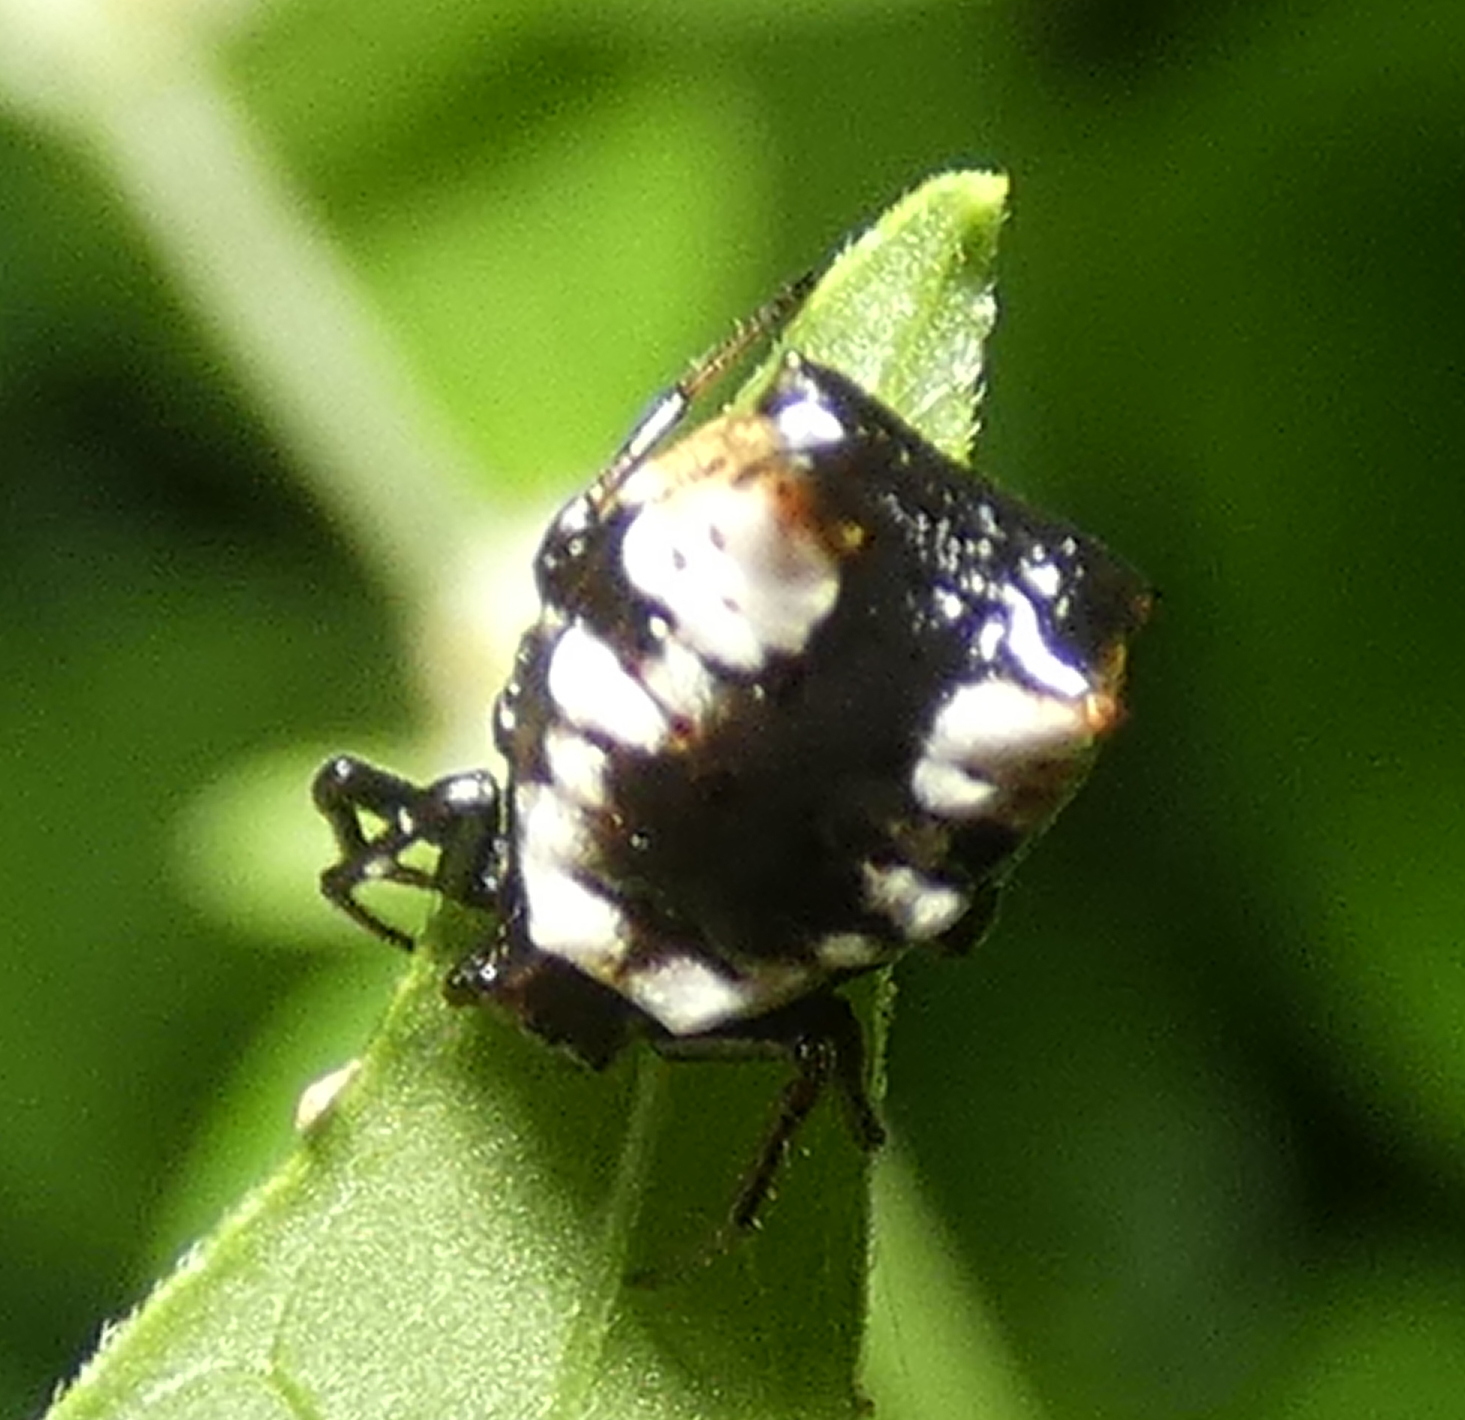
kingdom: Animalia
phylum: Arthropoda
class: Arachnida
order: Araneae
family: Araneidae
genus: Micrathena
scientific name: Micrathena patruelis
